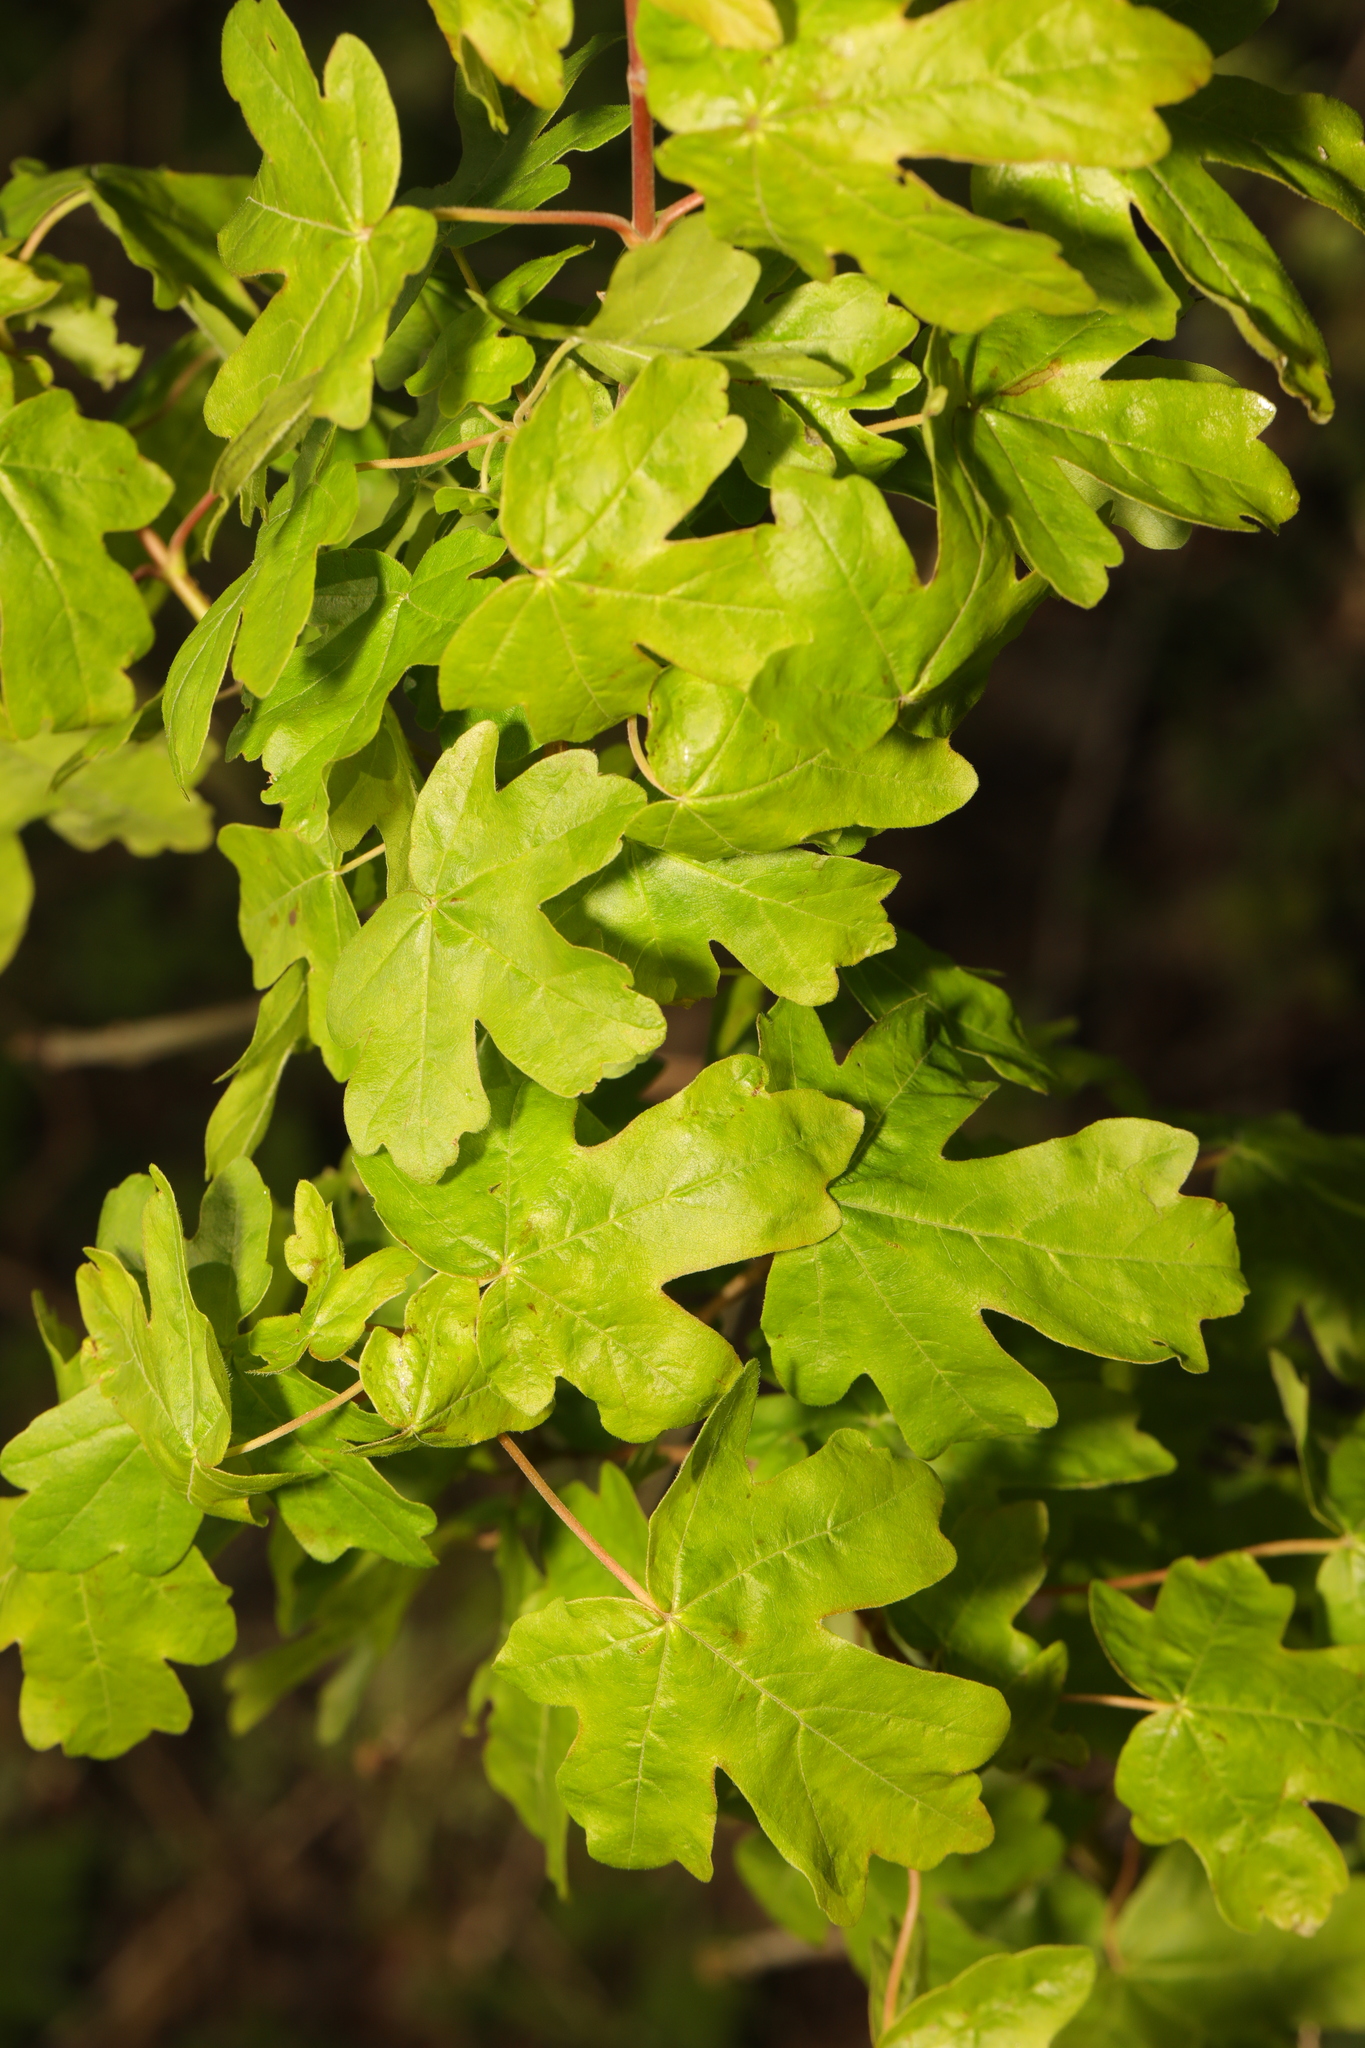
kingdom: Plantae
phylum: Tracheophyta
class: Magnoliopsida
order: Sapindales
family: Sapindaceae
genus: Acer
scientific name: Acer campestre
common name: Field maple
